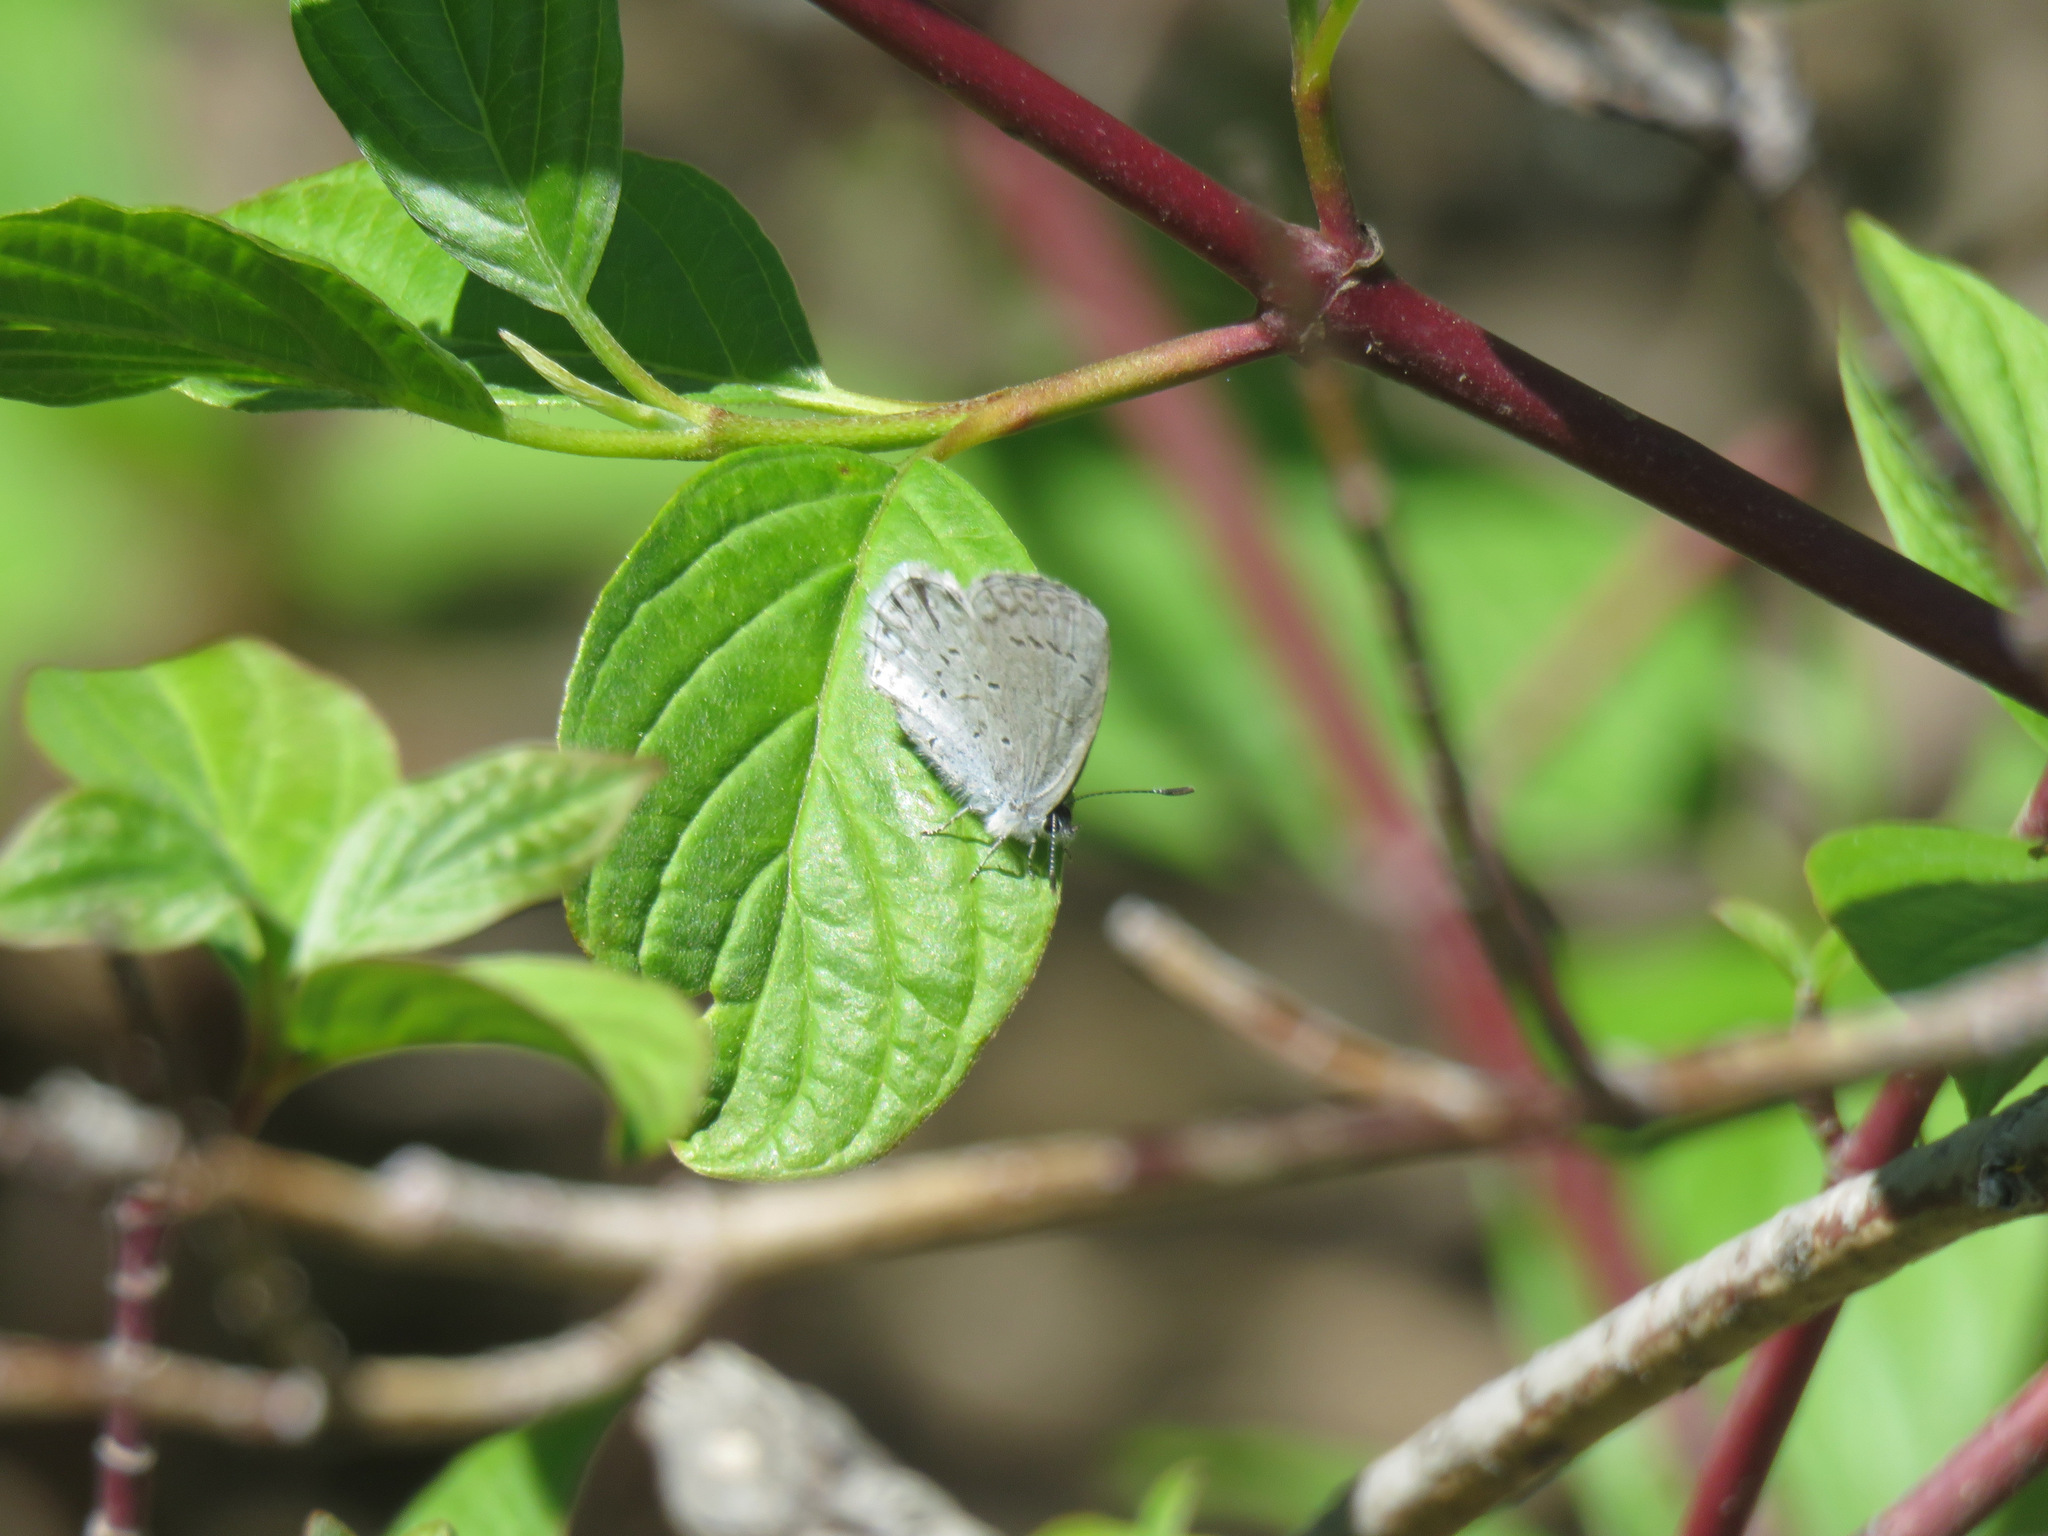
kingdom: Animalia
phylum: Arthropoda
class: Insecta
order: Lepidoptera
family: Lycaenidae
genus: Celastrina
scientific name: Celastrina ladon
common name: Spring azure
